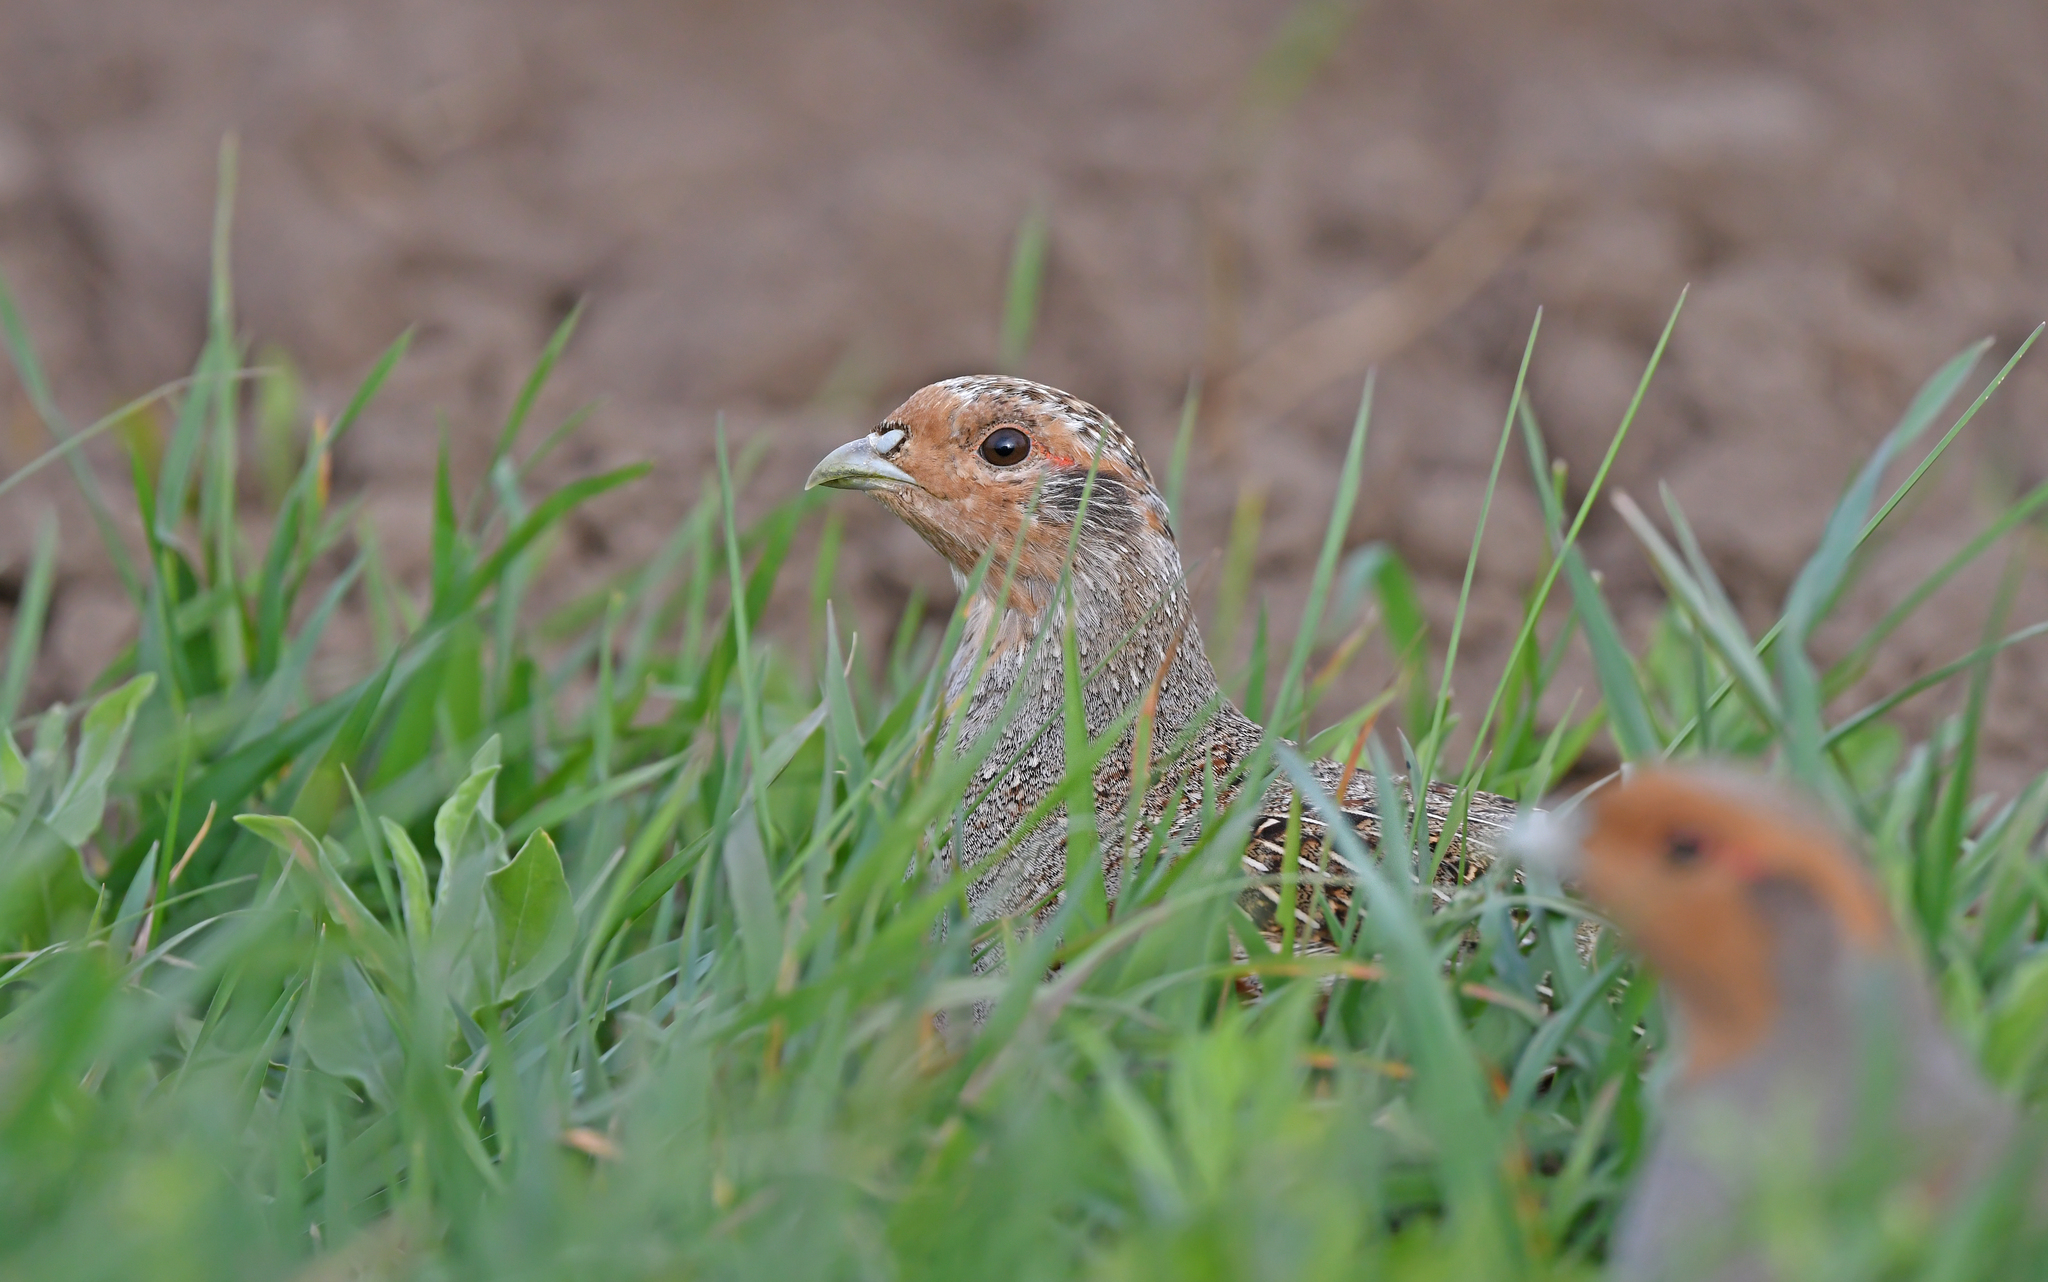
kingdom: Animalia
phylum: Chordata
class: Aves
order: Galliformes
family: Phasianidae
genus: Perdix
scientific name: Perdix perdix
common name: Grey partridge
